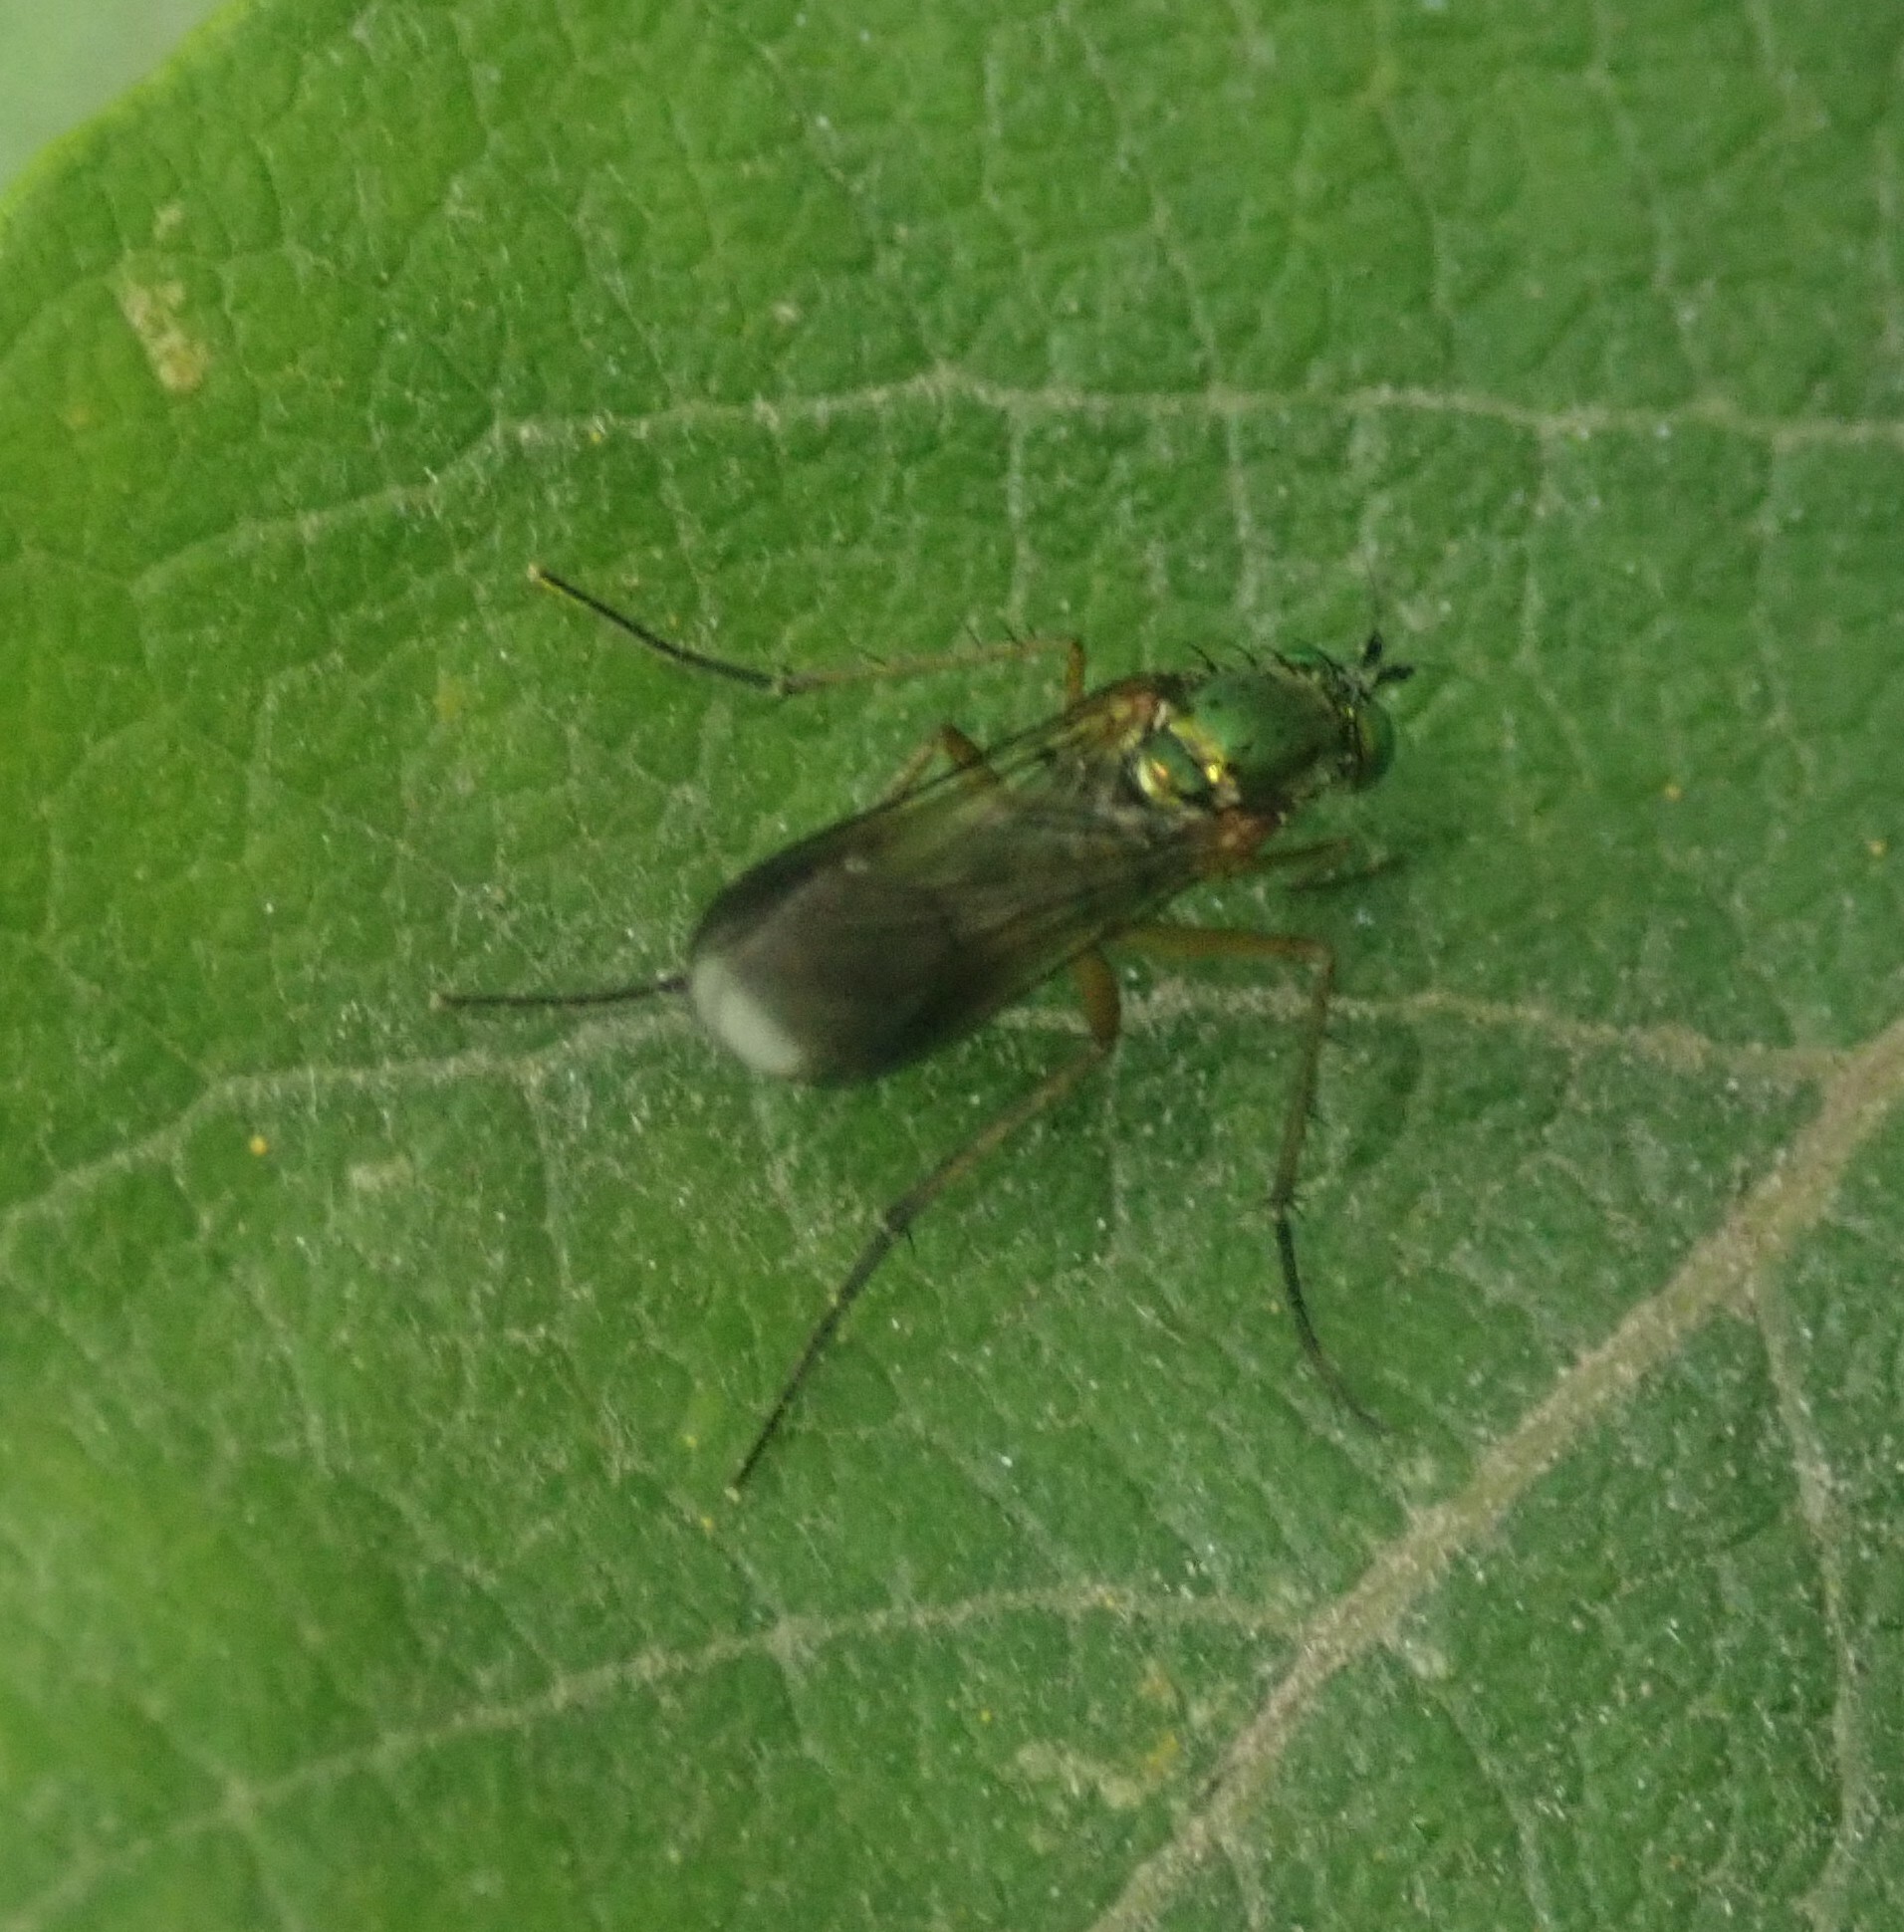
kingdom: Animalia
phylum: Arthropoda
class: Insecta
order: Diptera
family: Dolichopodidae
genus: Poecilobothrus
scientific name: Poecilobothrus nobilitatus
